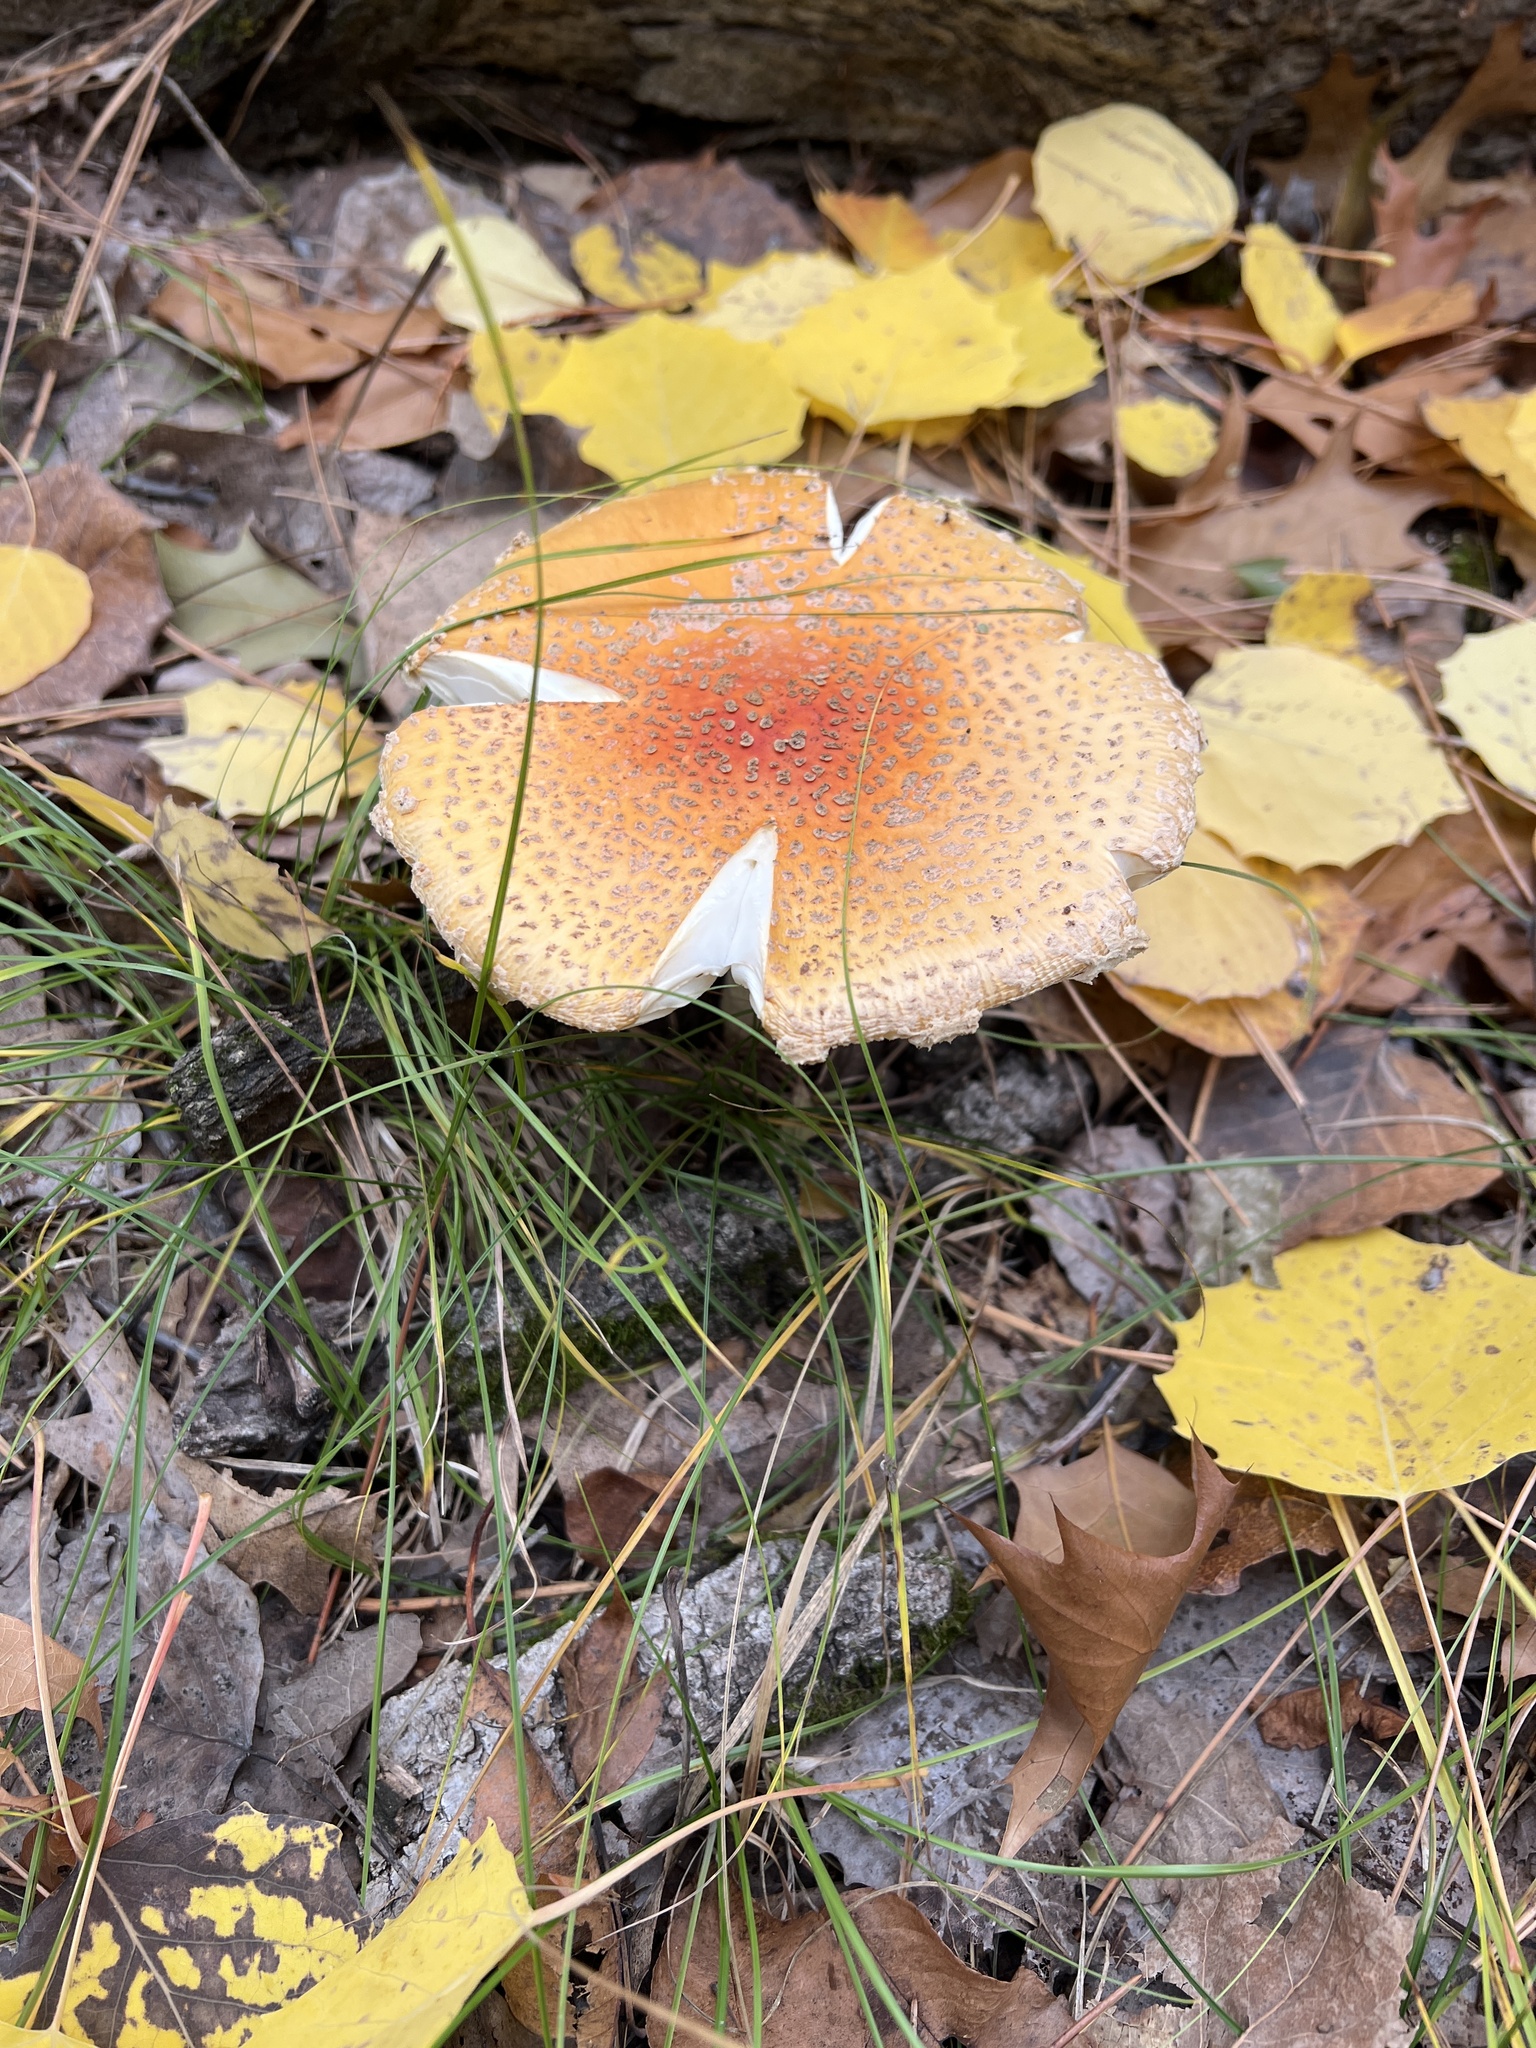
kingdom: Fungi
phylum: Basidiomycota
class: Agaricomycetes
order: Agaricales
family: Amanitaceae
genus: Amanita
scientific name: Amanita muscaria
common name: Fly agaric
